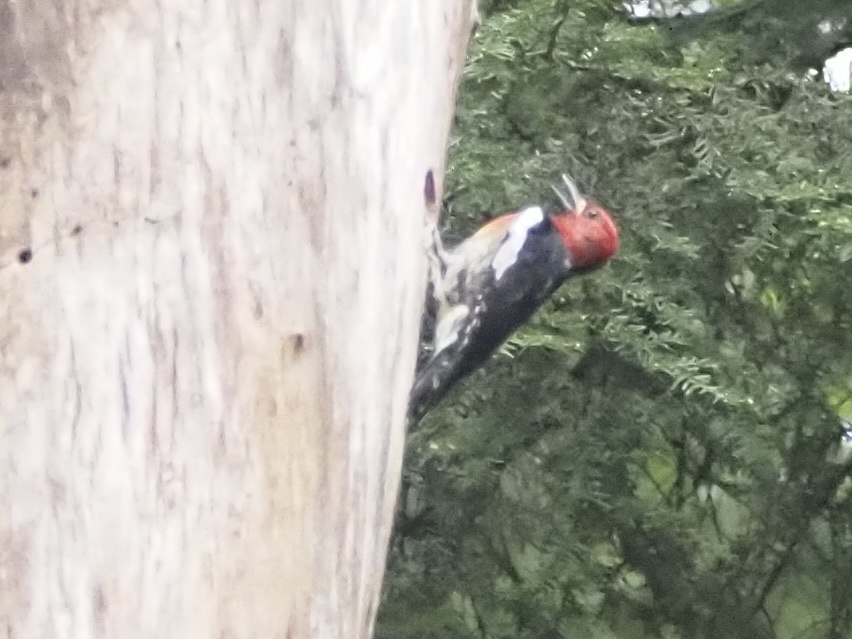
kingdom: Animalia
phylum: Chordata
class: Aves
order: Piciformes
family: Picidae
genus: Sphyrapicus
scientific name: Sphyrapicus ruber
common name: Red-breasted sapsucker
